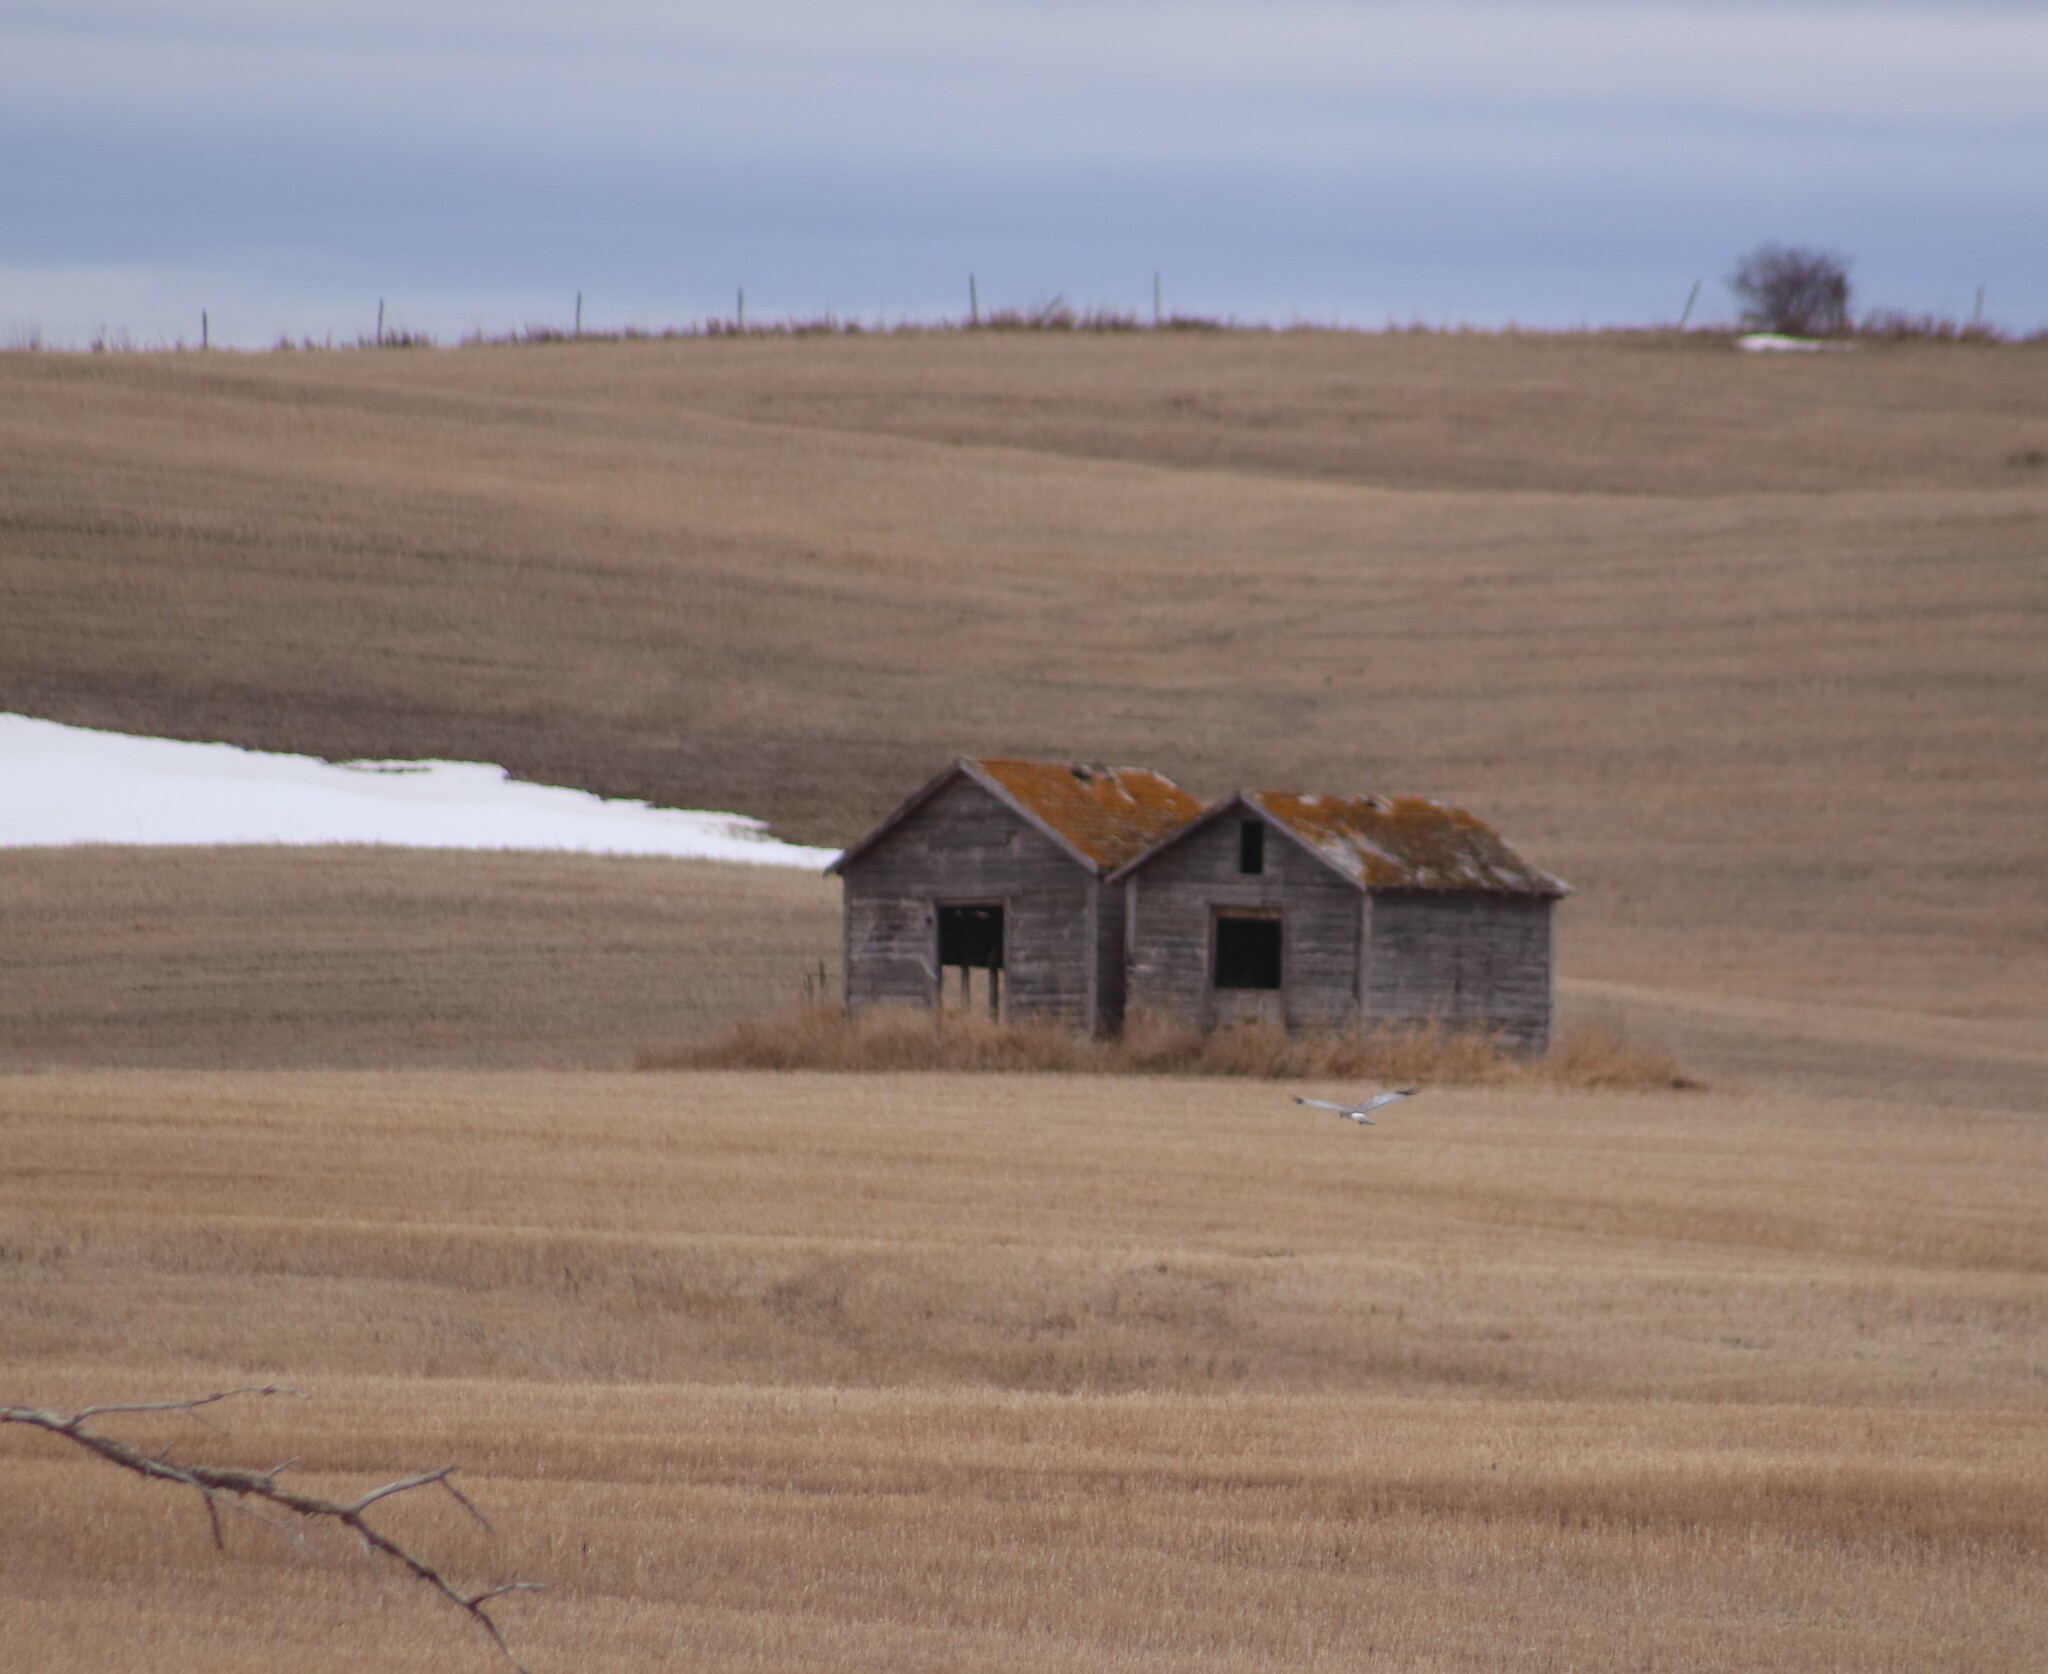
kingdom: Animalia
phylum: Chordata
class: Aves
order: Accipitriformes
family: Accipitridae
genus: Circus
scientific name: Circus cyaneus
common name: Hen harrier
